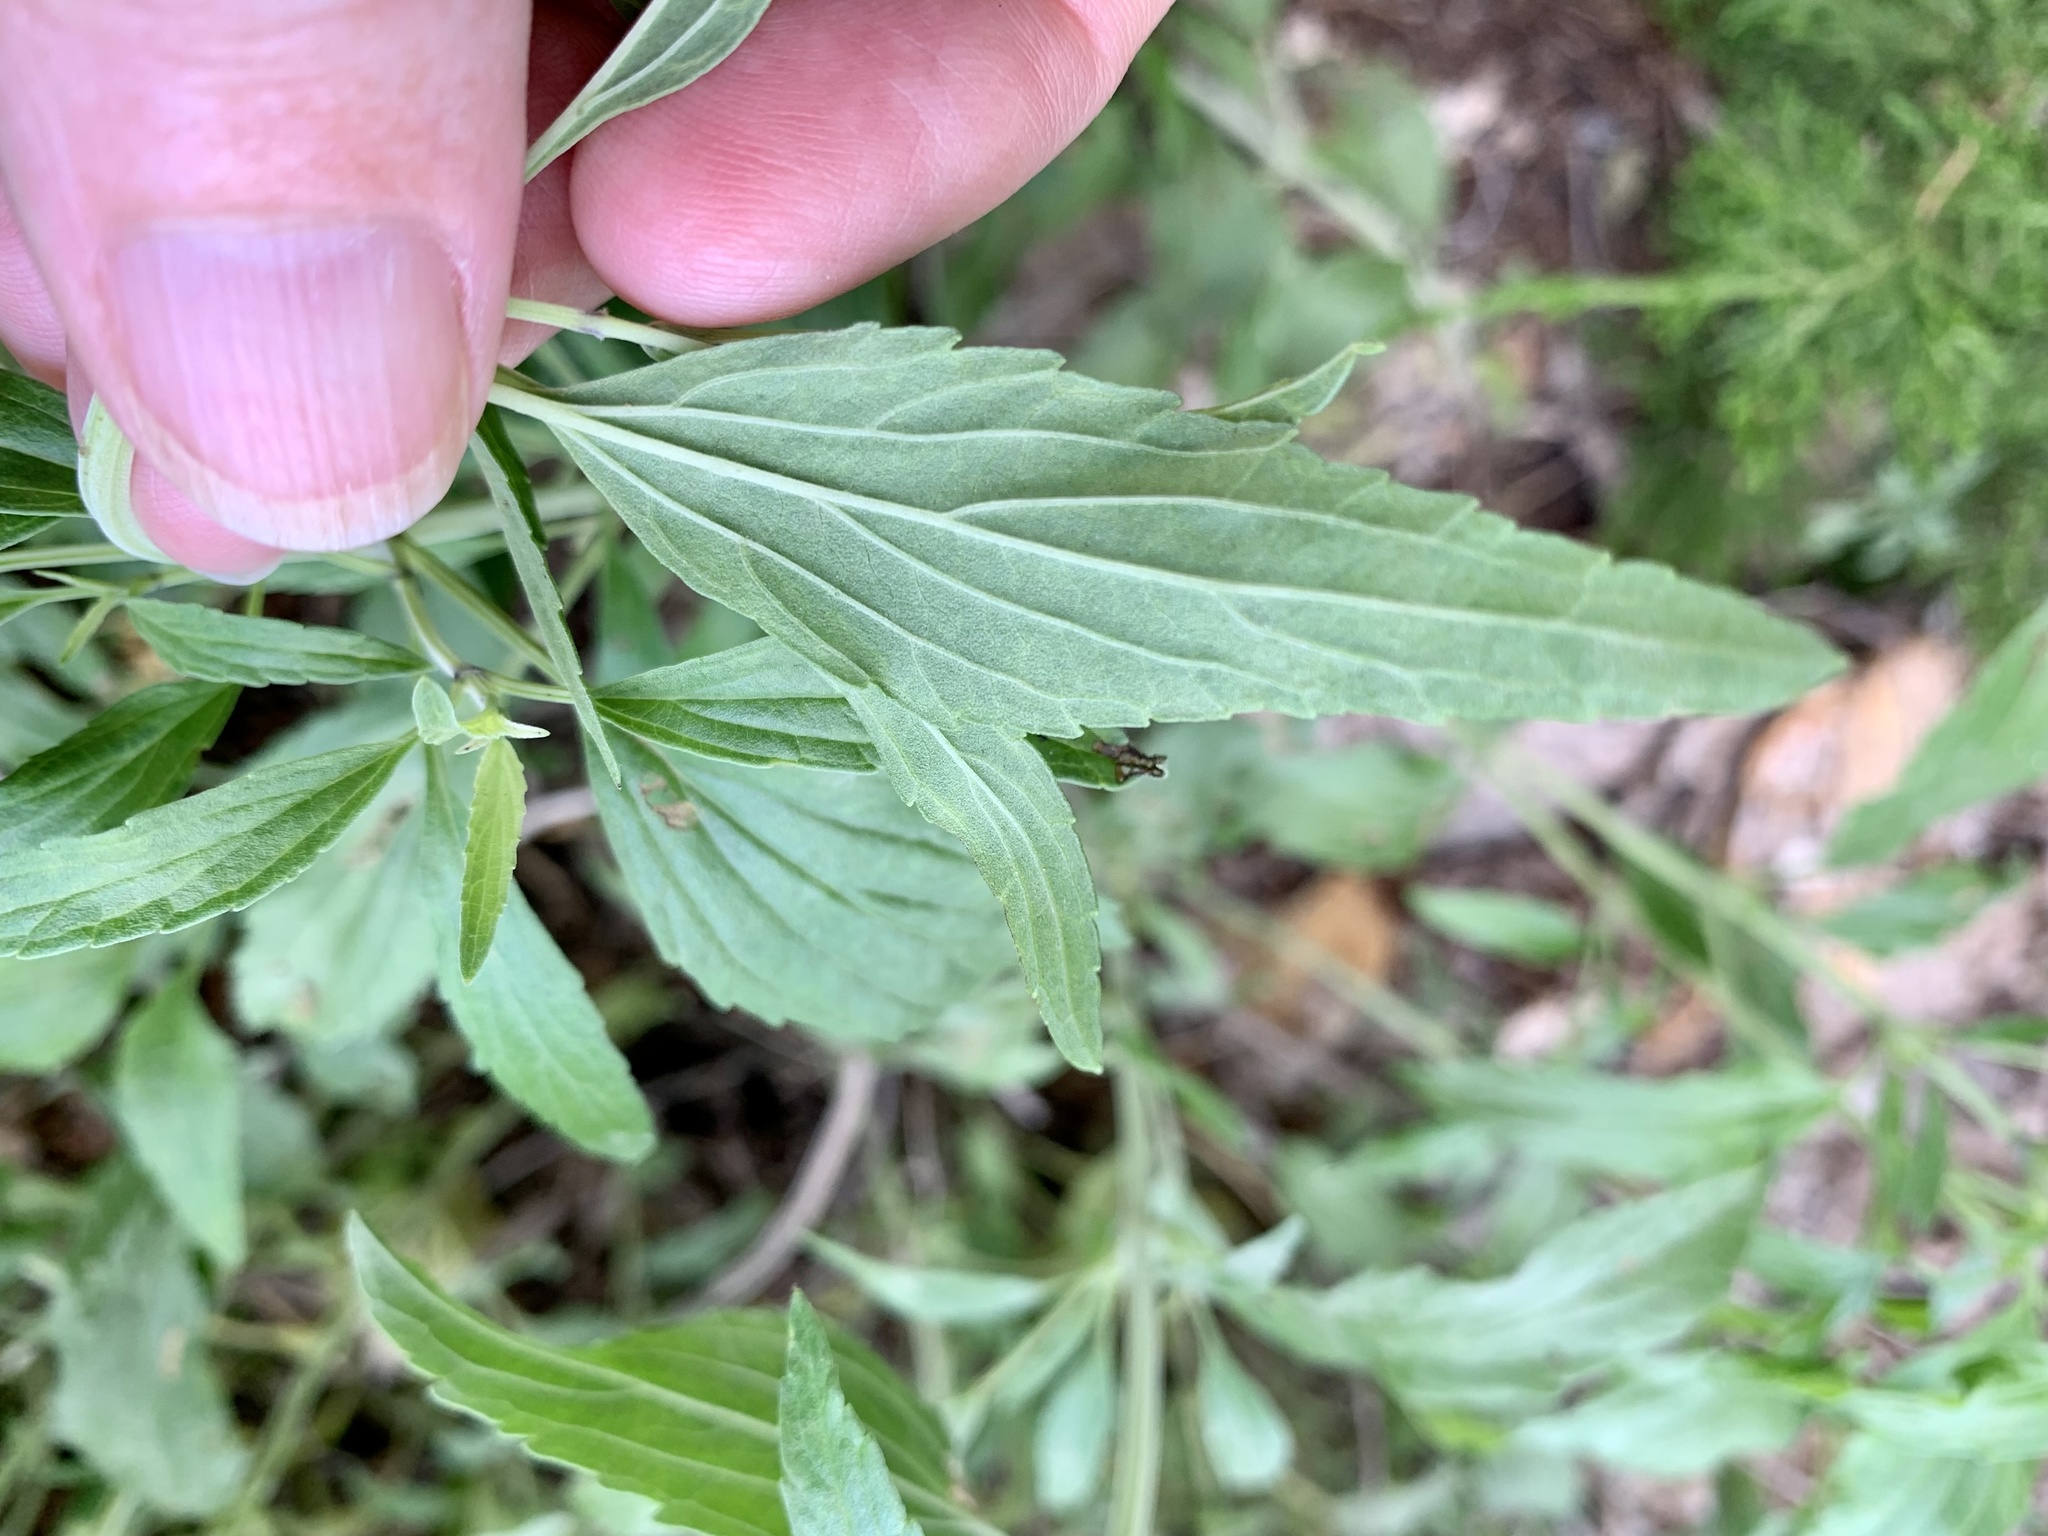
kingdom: Plantae
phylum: Tracheophyta
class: Magnoliopsida
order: Lamiales
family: Lamiaceae
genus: Salvia
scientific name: Salvia farinacea
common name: Mealy sage
